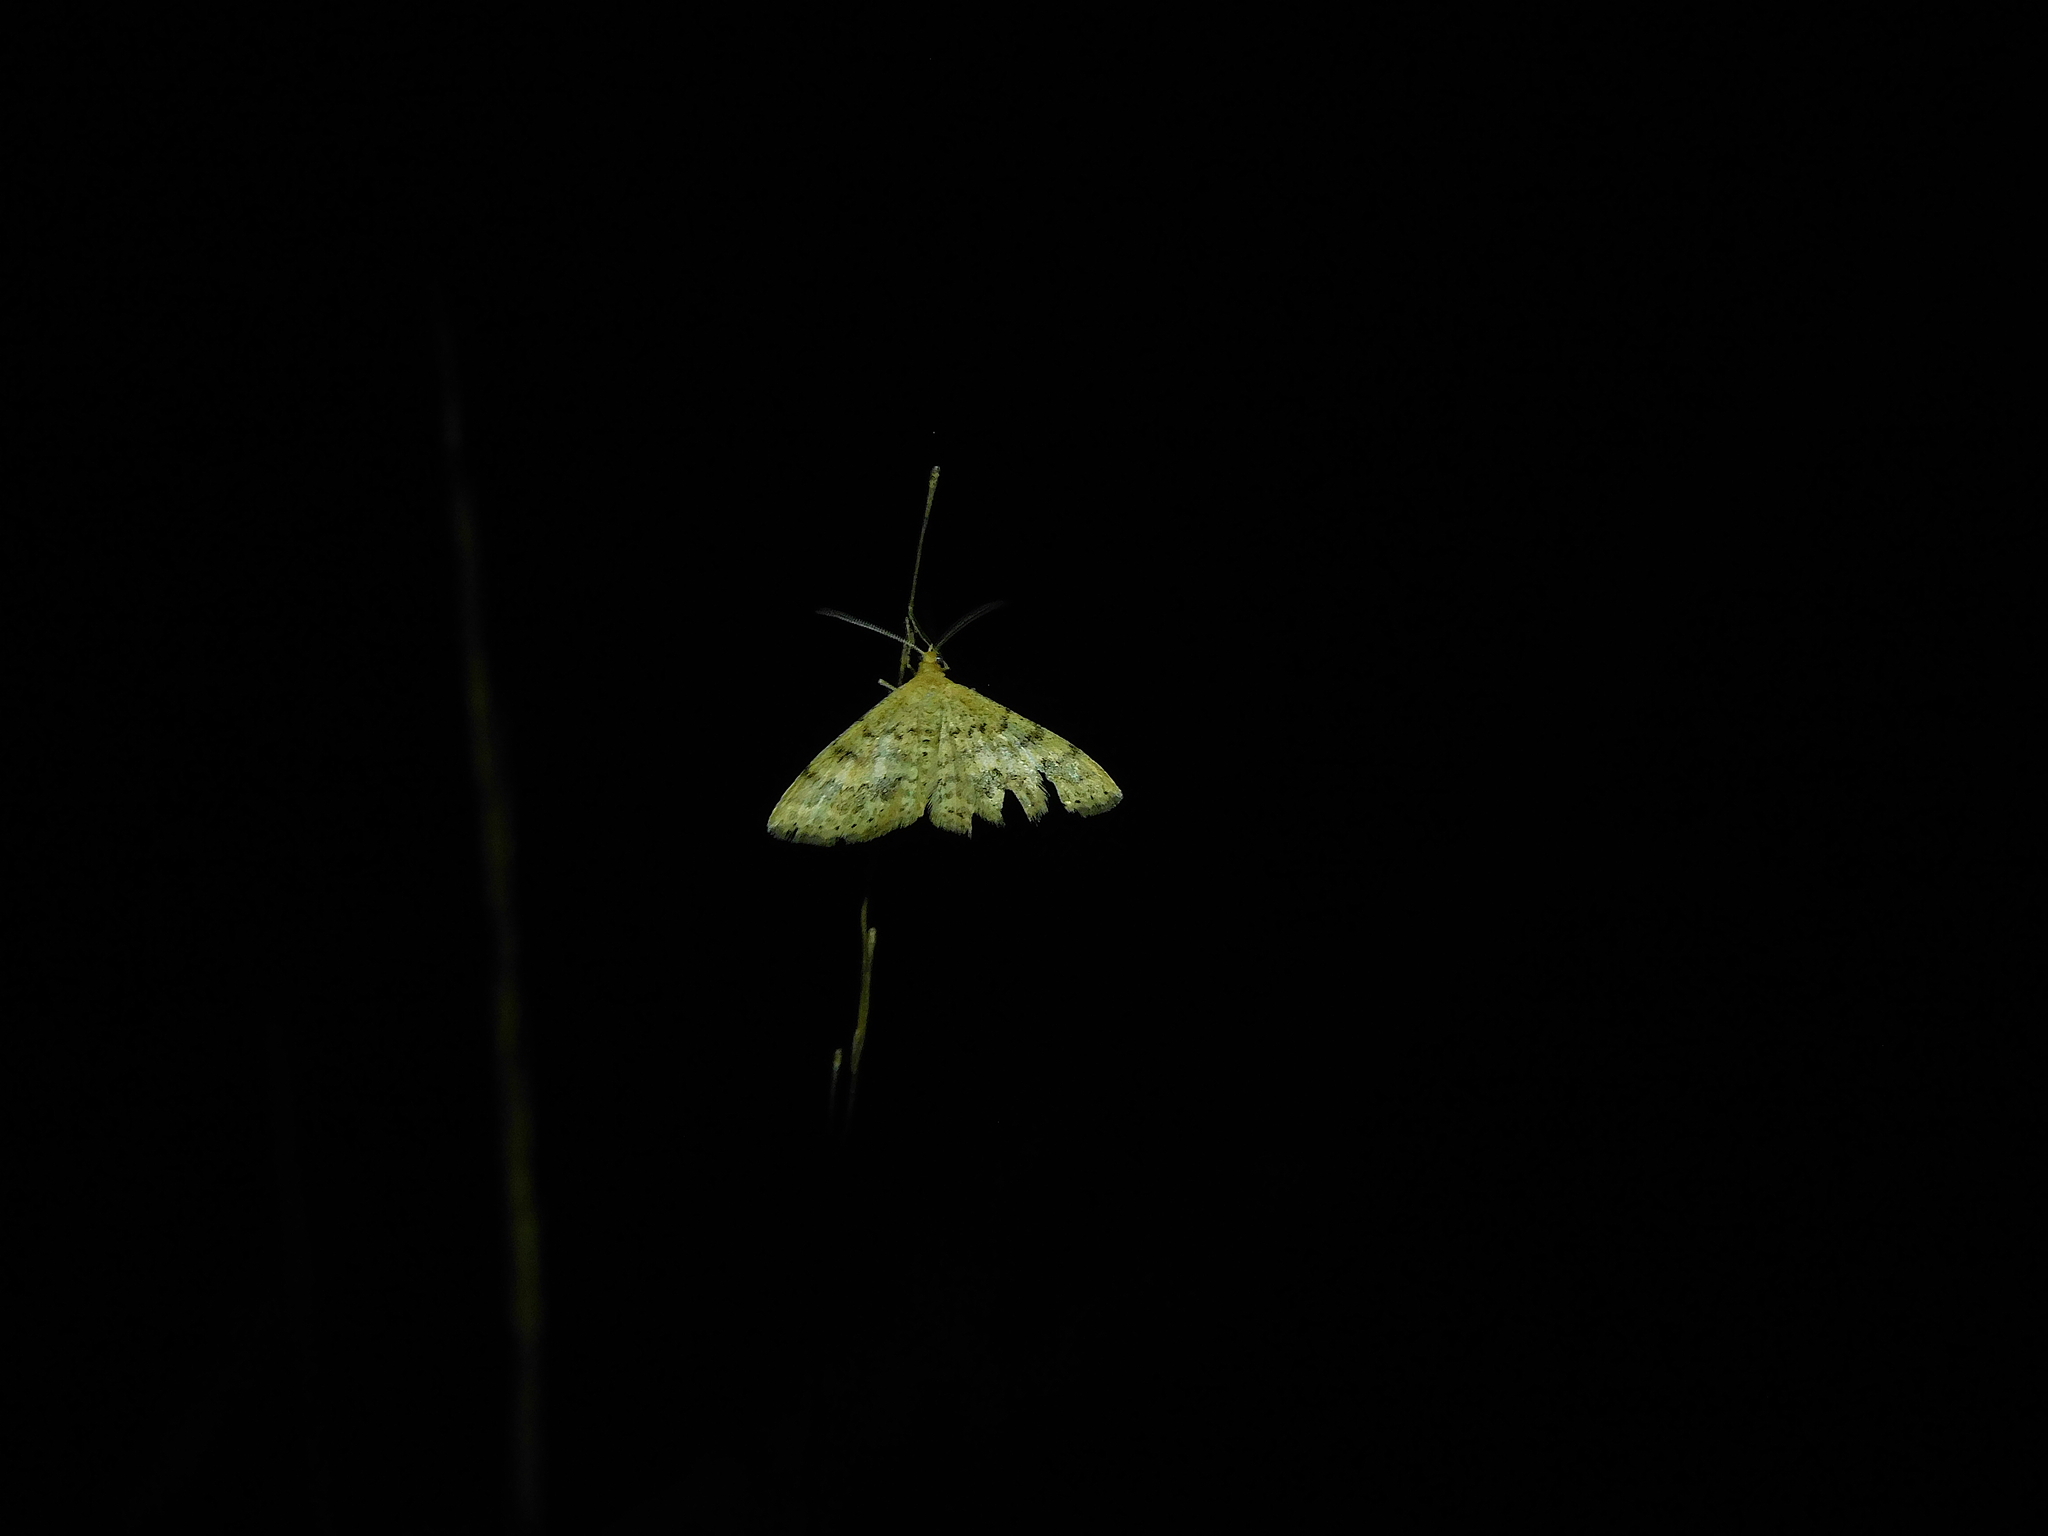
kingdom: Animalia
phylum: Arthropoda
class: Insecta
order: Lepidoptera
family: Geometridae
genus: Scopula
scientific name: Scopula rubraria
